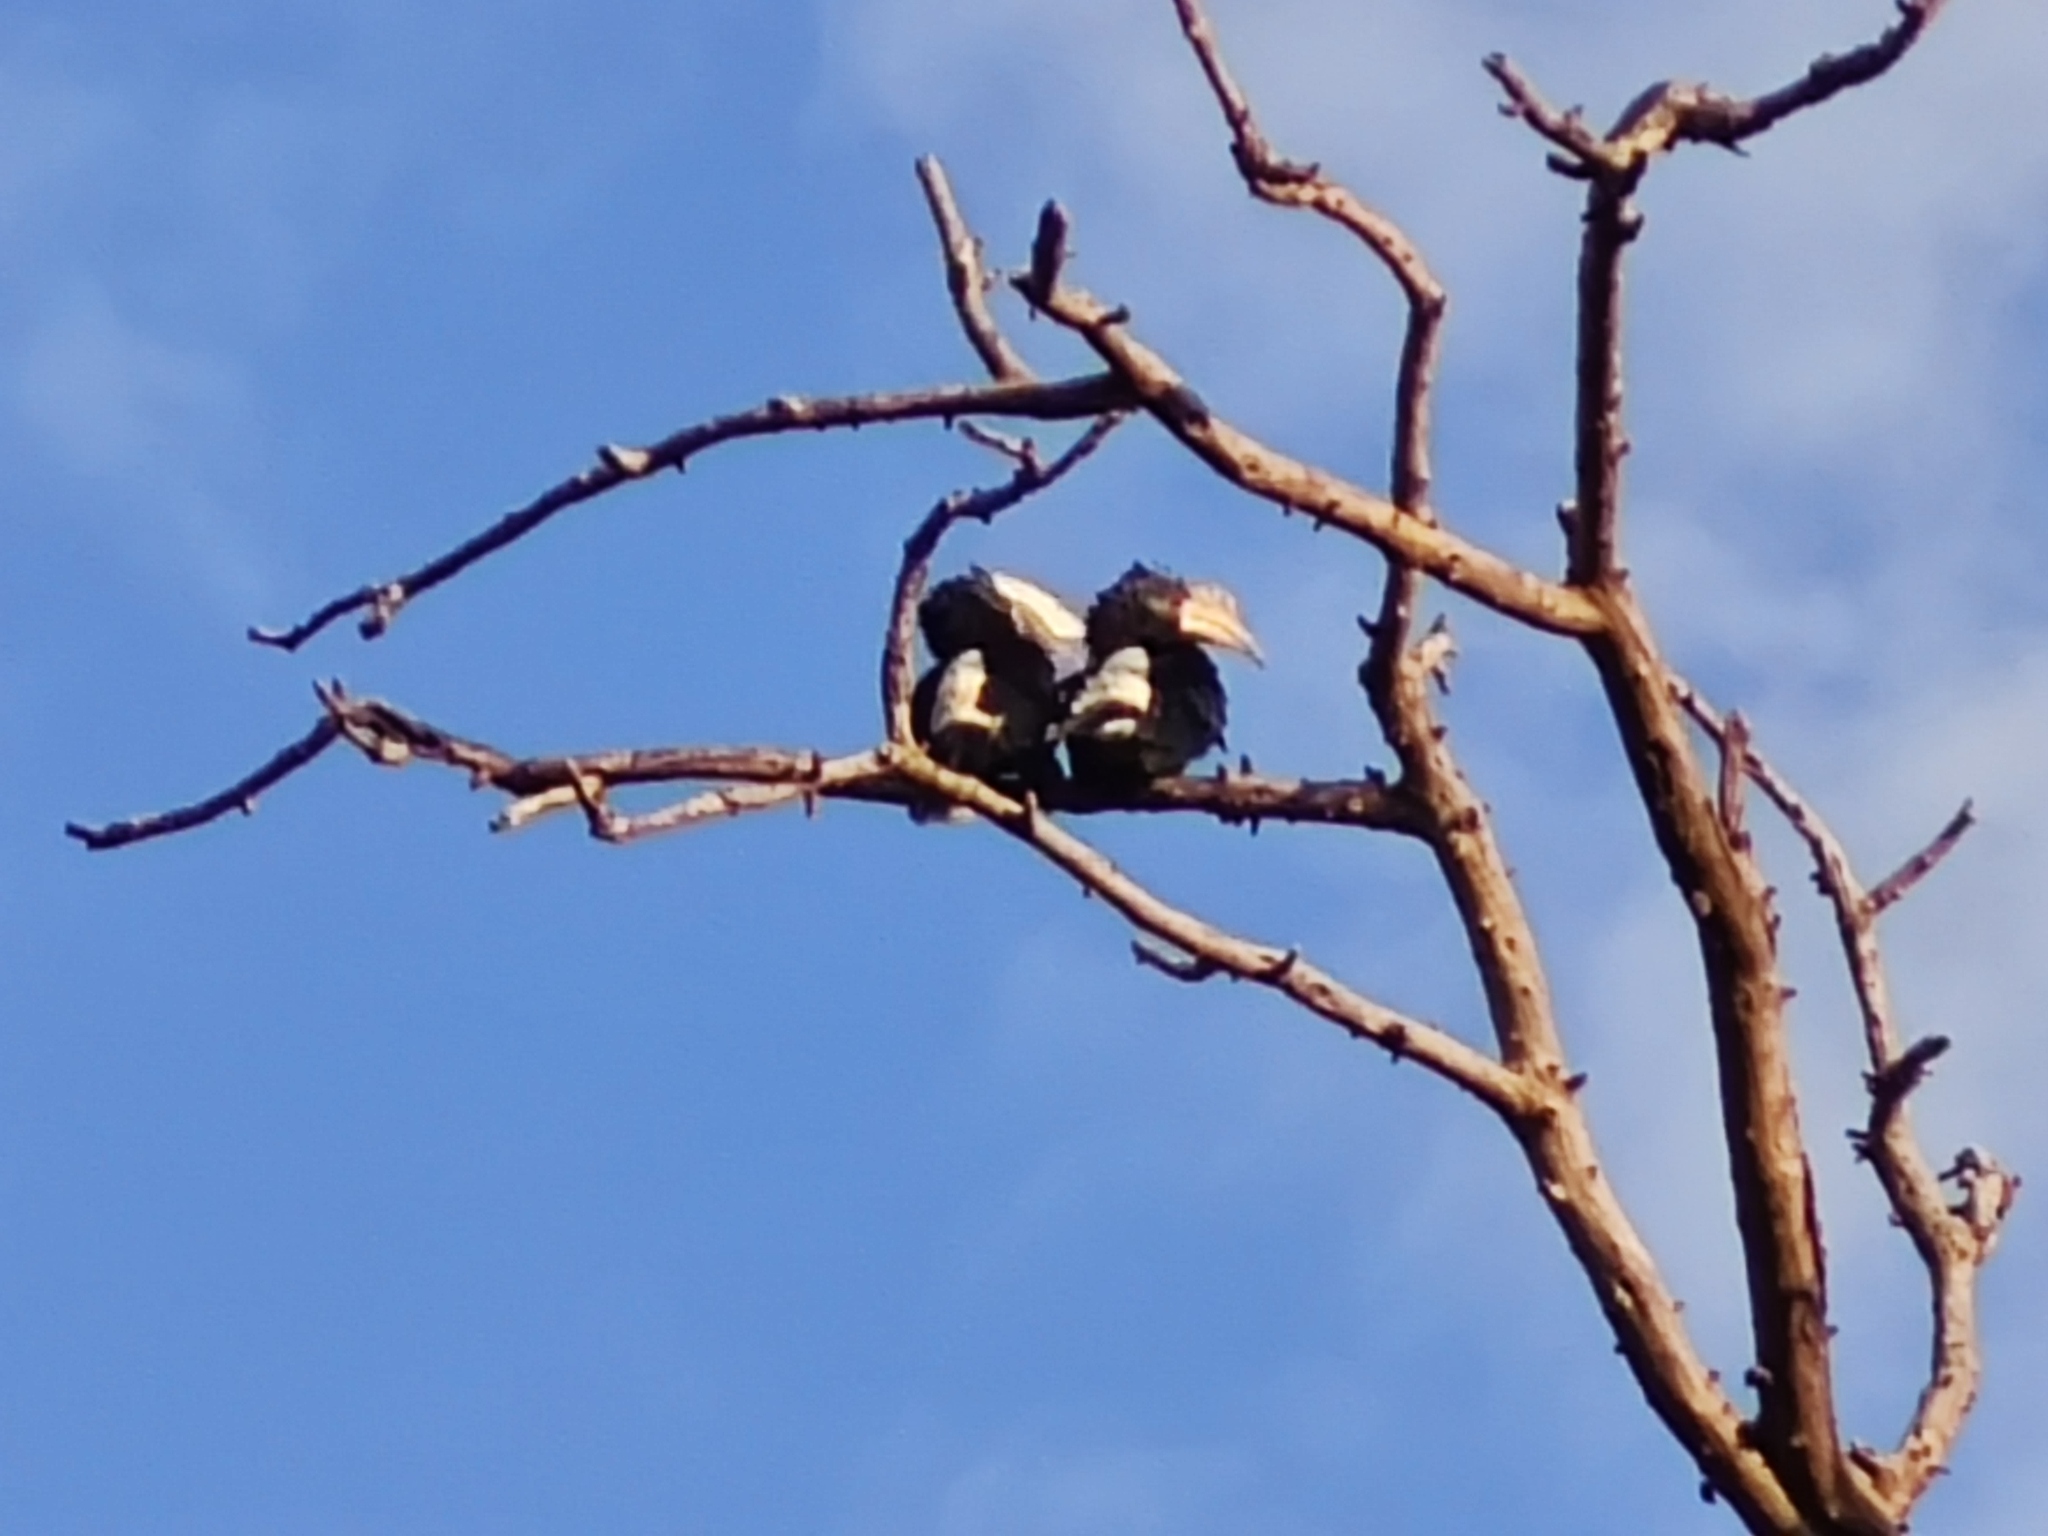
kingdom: Animalia
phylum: Chordata
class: Aves
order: Bucerotiformes
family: Bucerotidae
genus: Bycanistes
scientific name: Bycanistes brevis
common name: Silvery-cheeked hornbill
